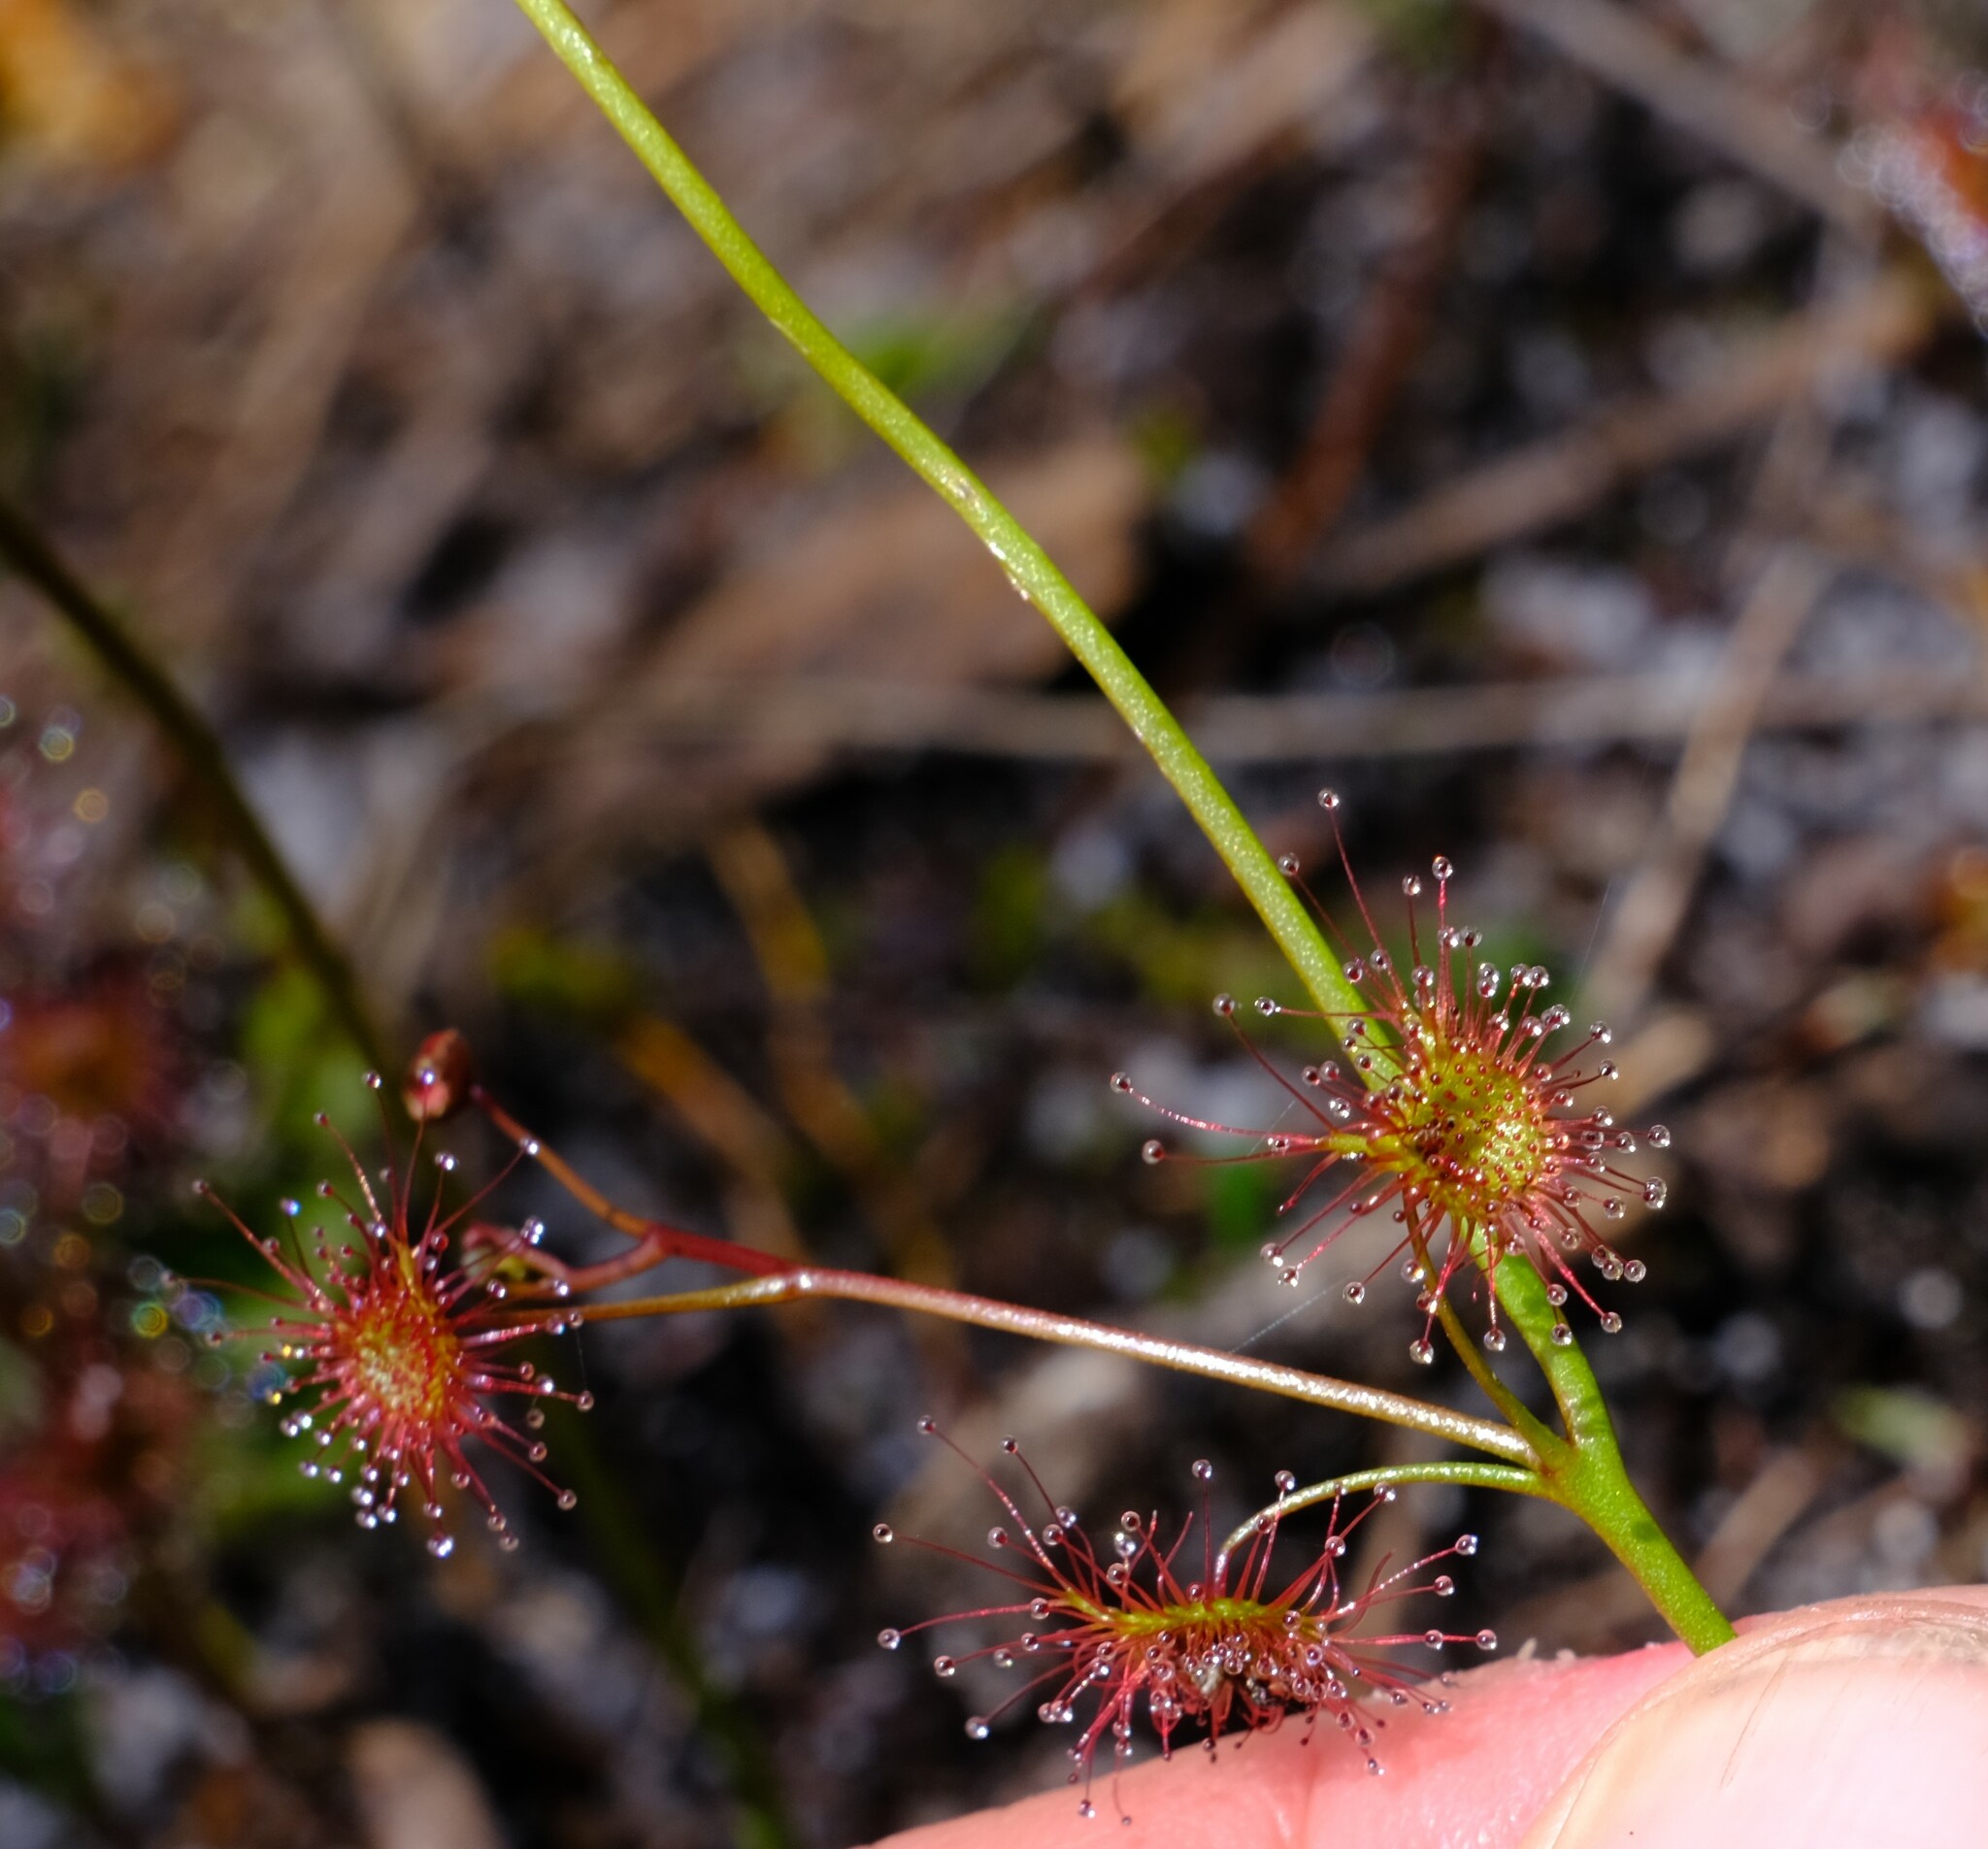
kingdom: Plantae
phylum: Tracheophyta
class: Magnoliopsida
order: Caryophyllales
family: Droseraceae
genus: Drosera
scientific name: Drosera peltata
